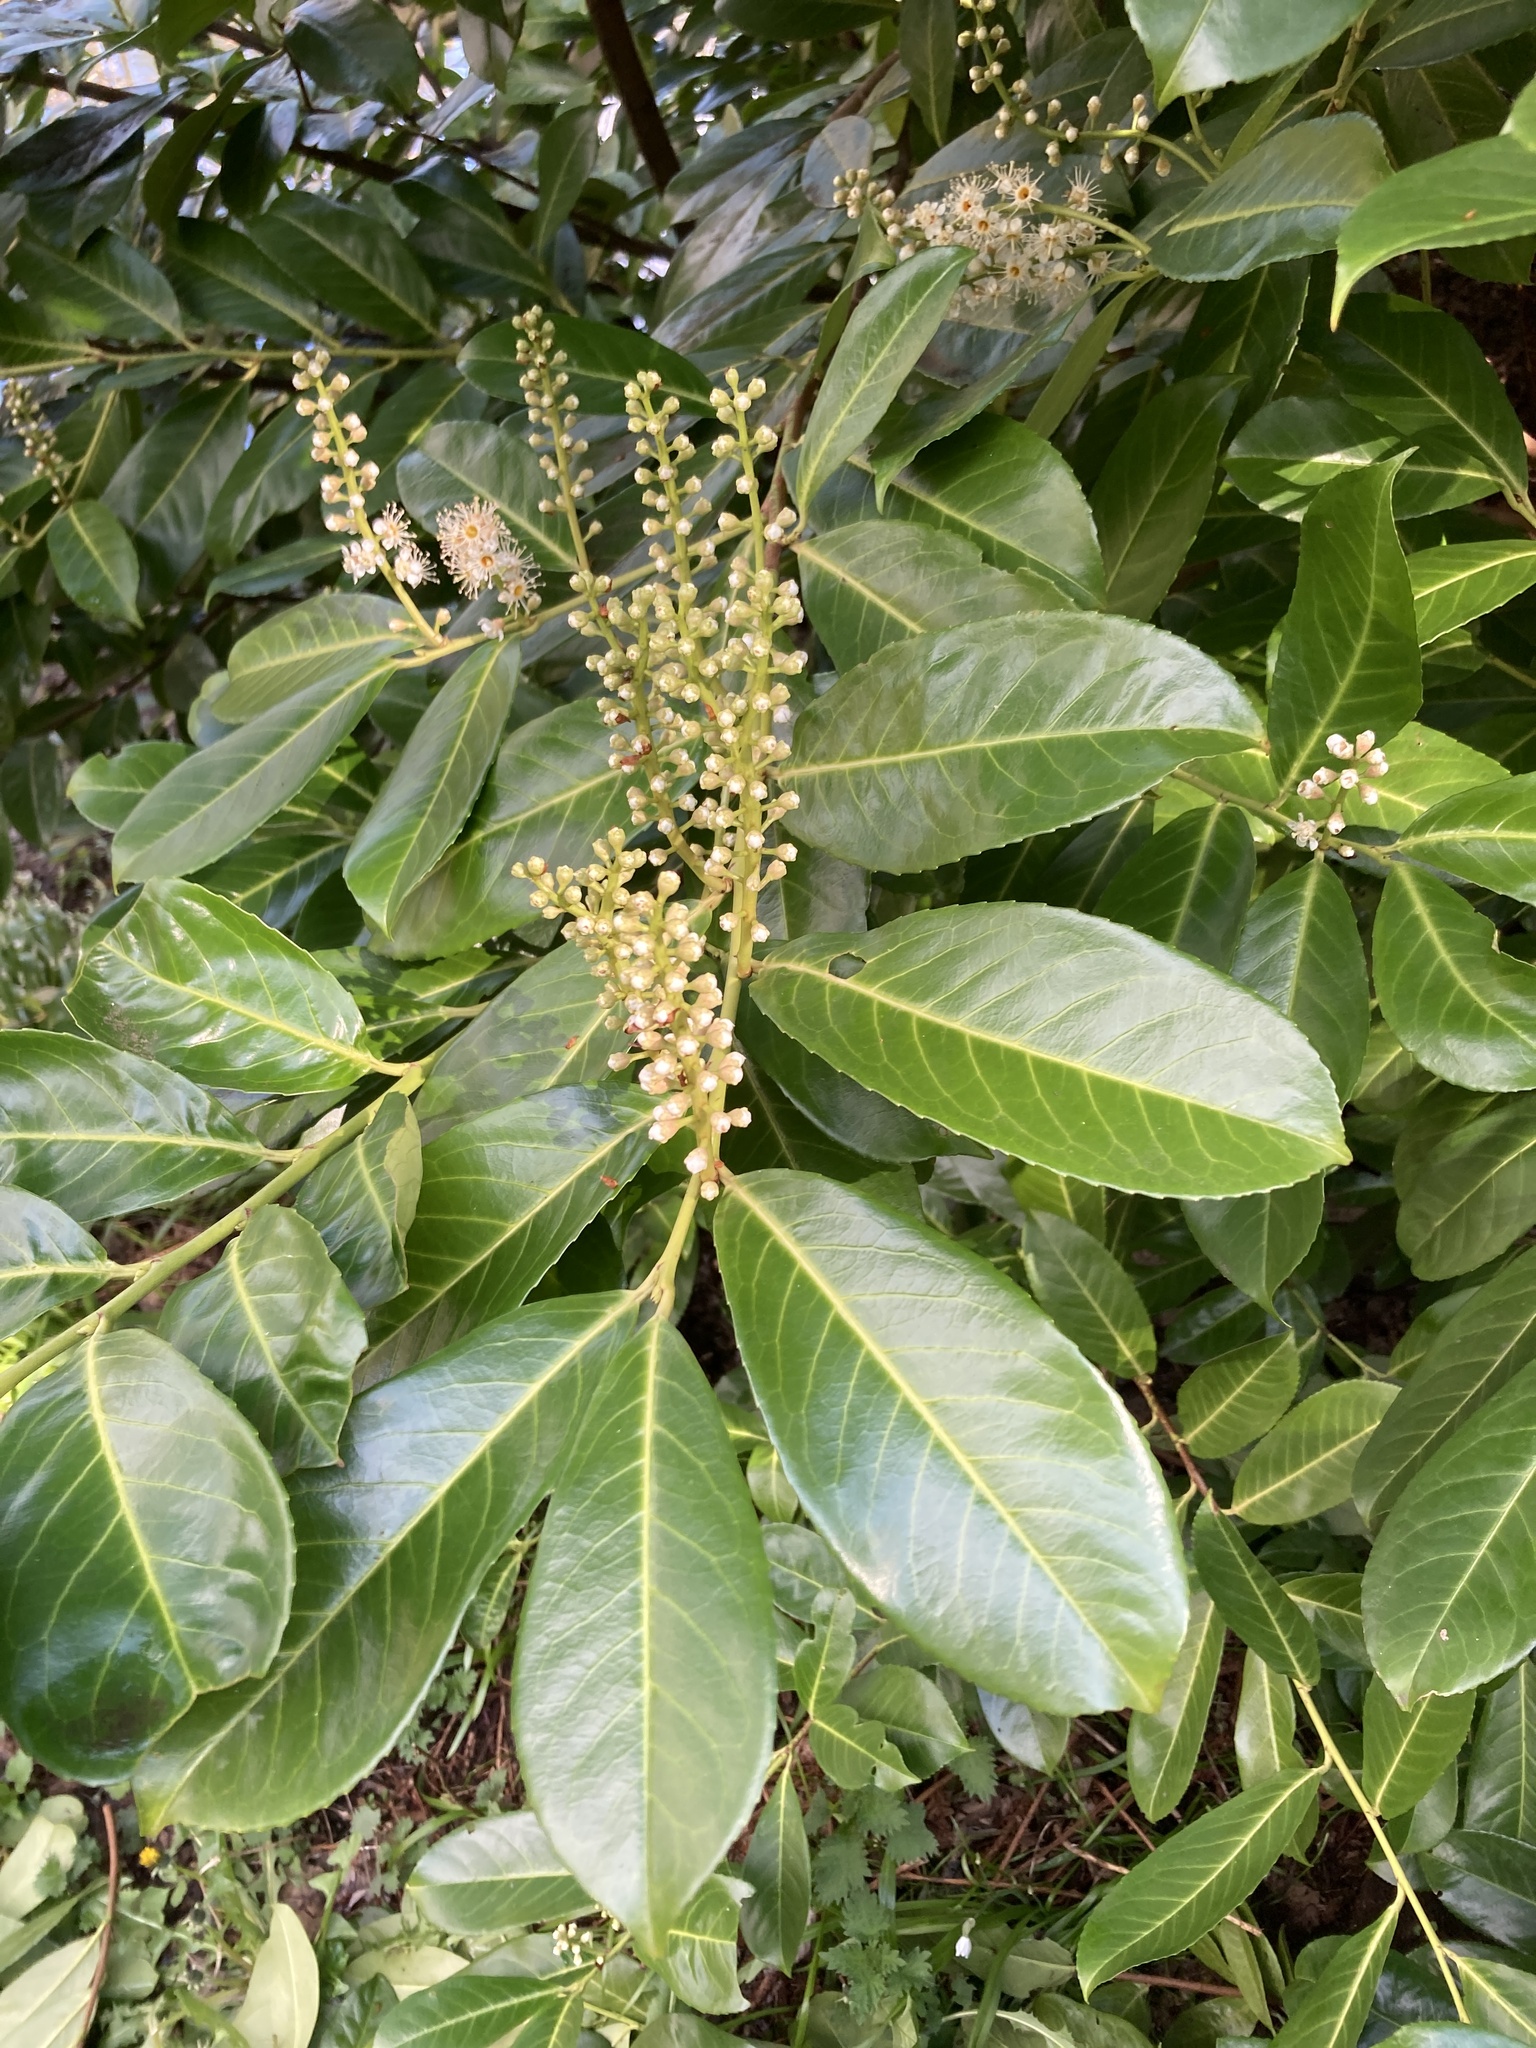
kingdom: Plantae
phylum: Tracheophyta
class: Magnoliopsida
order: Rosales
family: Rosaceae
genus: Prunus
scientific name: Prunus laurocerasus
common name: Cherry laurel
